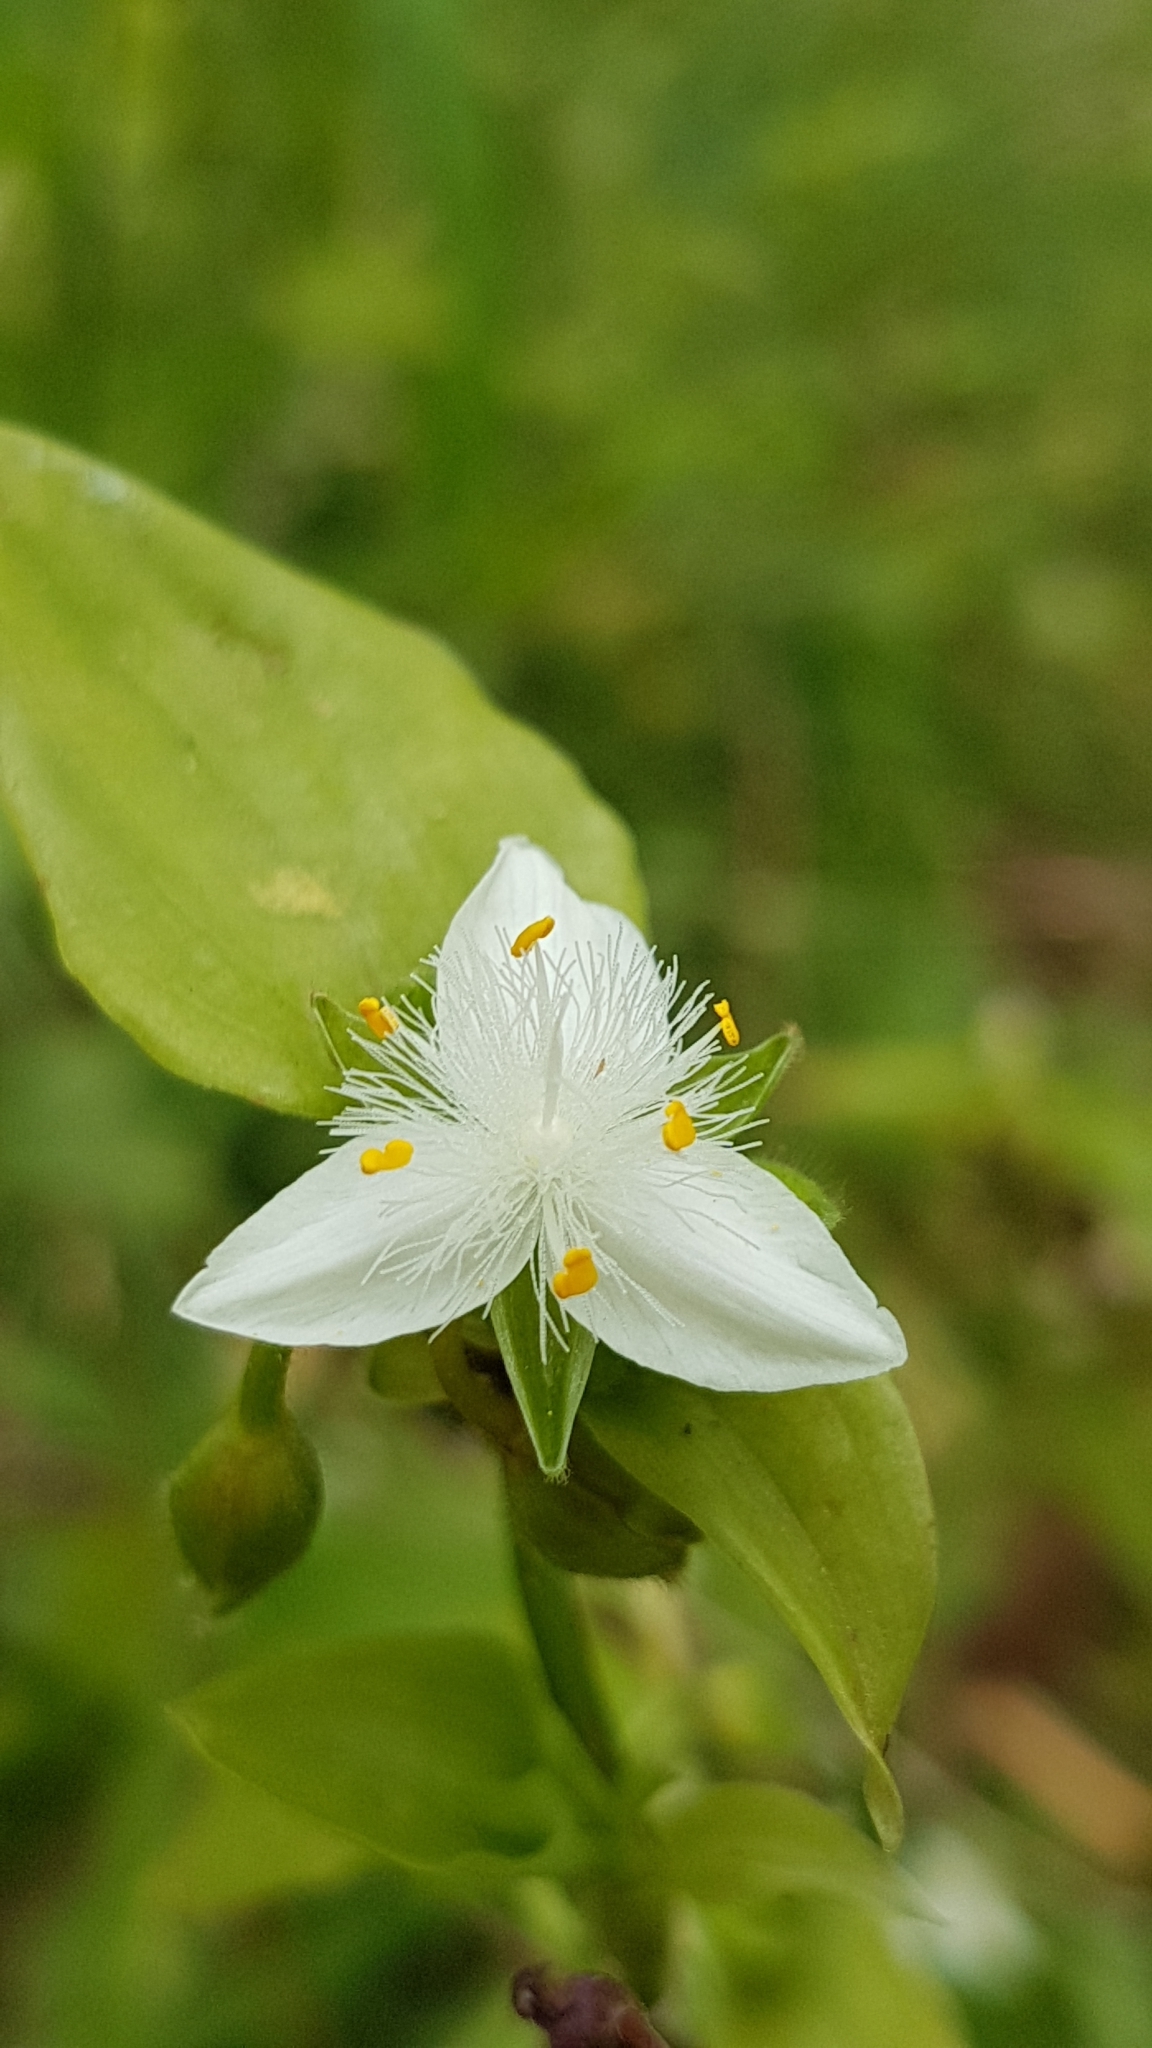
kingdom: Plantae
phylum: Tracheophyta
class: Liliopsida
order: Commelinales
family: Commelinaceae
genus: Tradescantia
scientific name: Tradescantia fluminensis
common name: Wandering-jew
